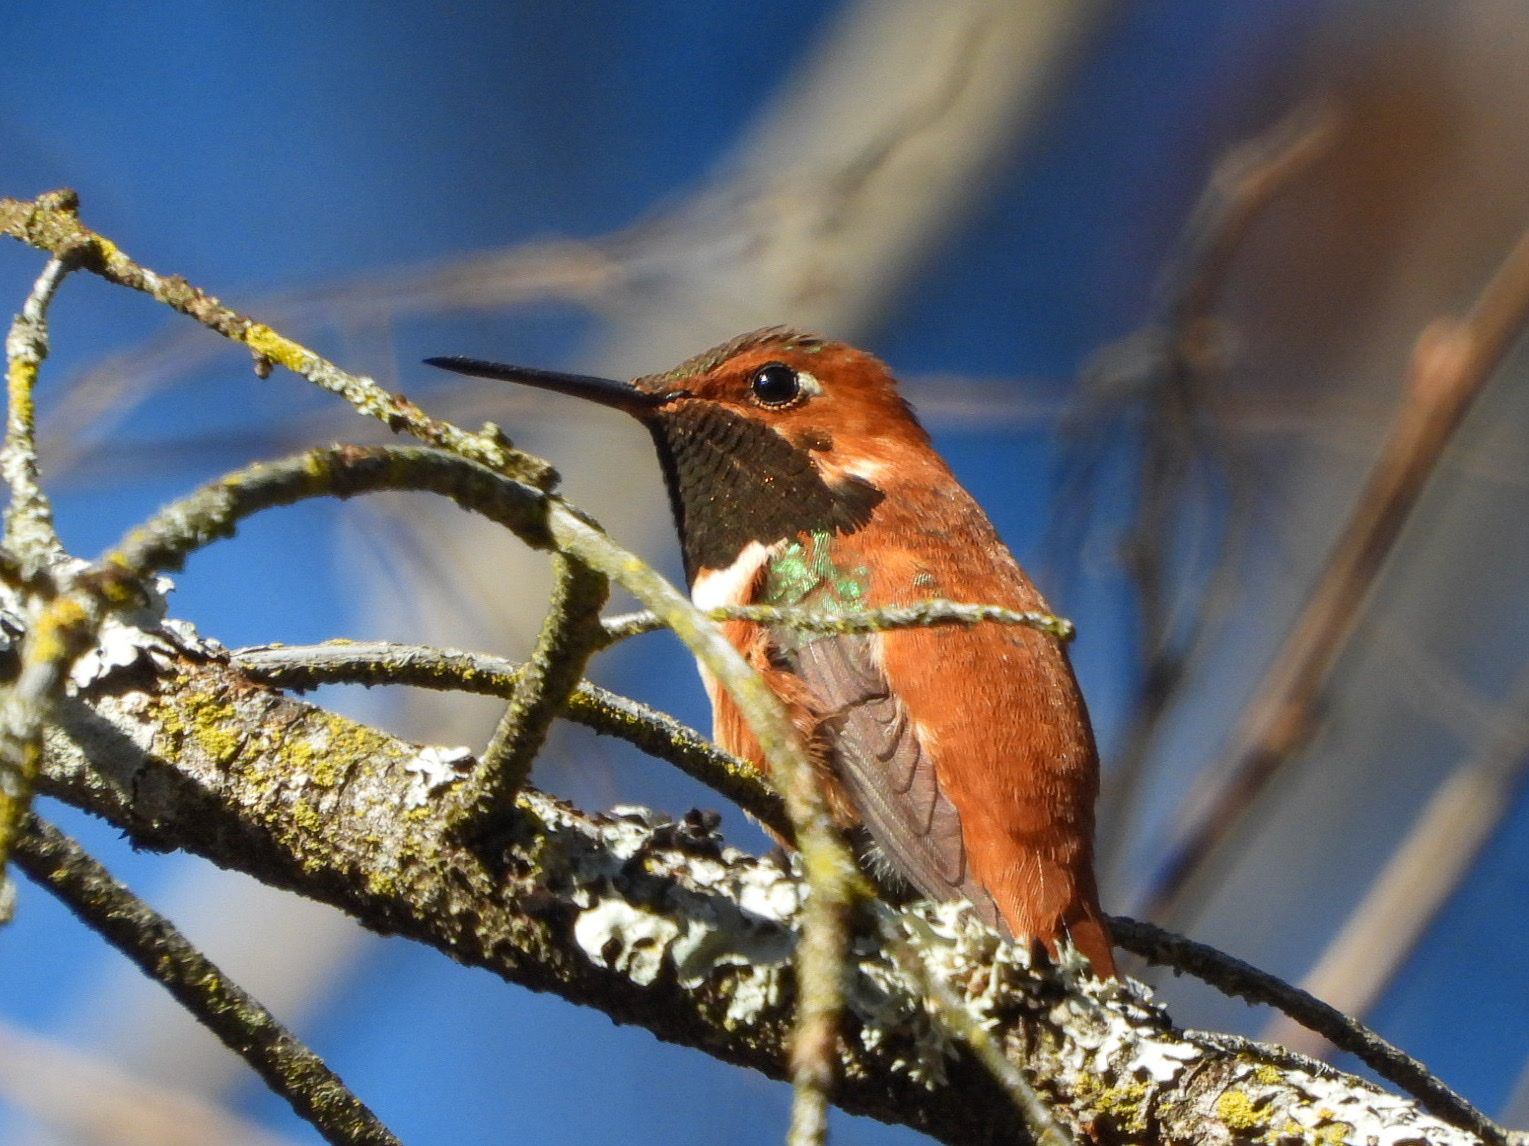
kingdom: Animalia
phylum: Chordata
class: Aves
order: Apodiformes
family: Trochilidae
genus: Selasphorus
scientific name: Selasphorus rufus
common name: Rufous hummingbird
